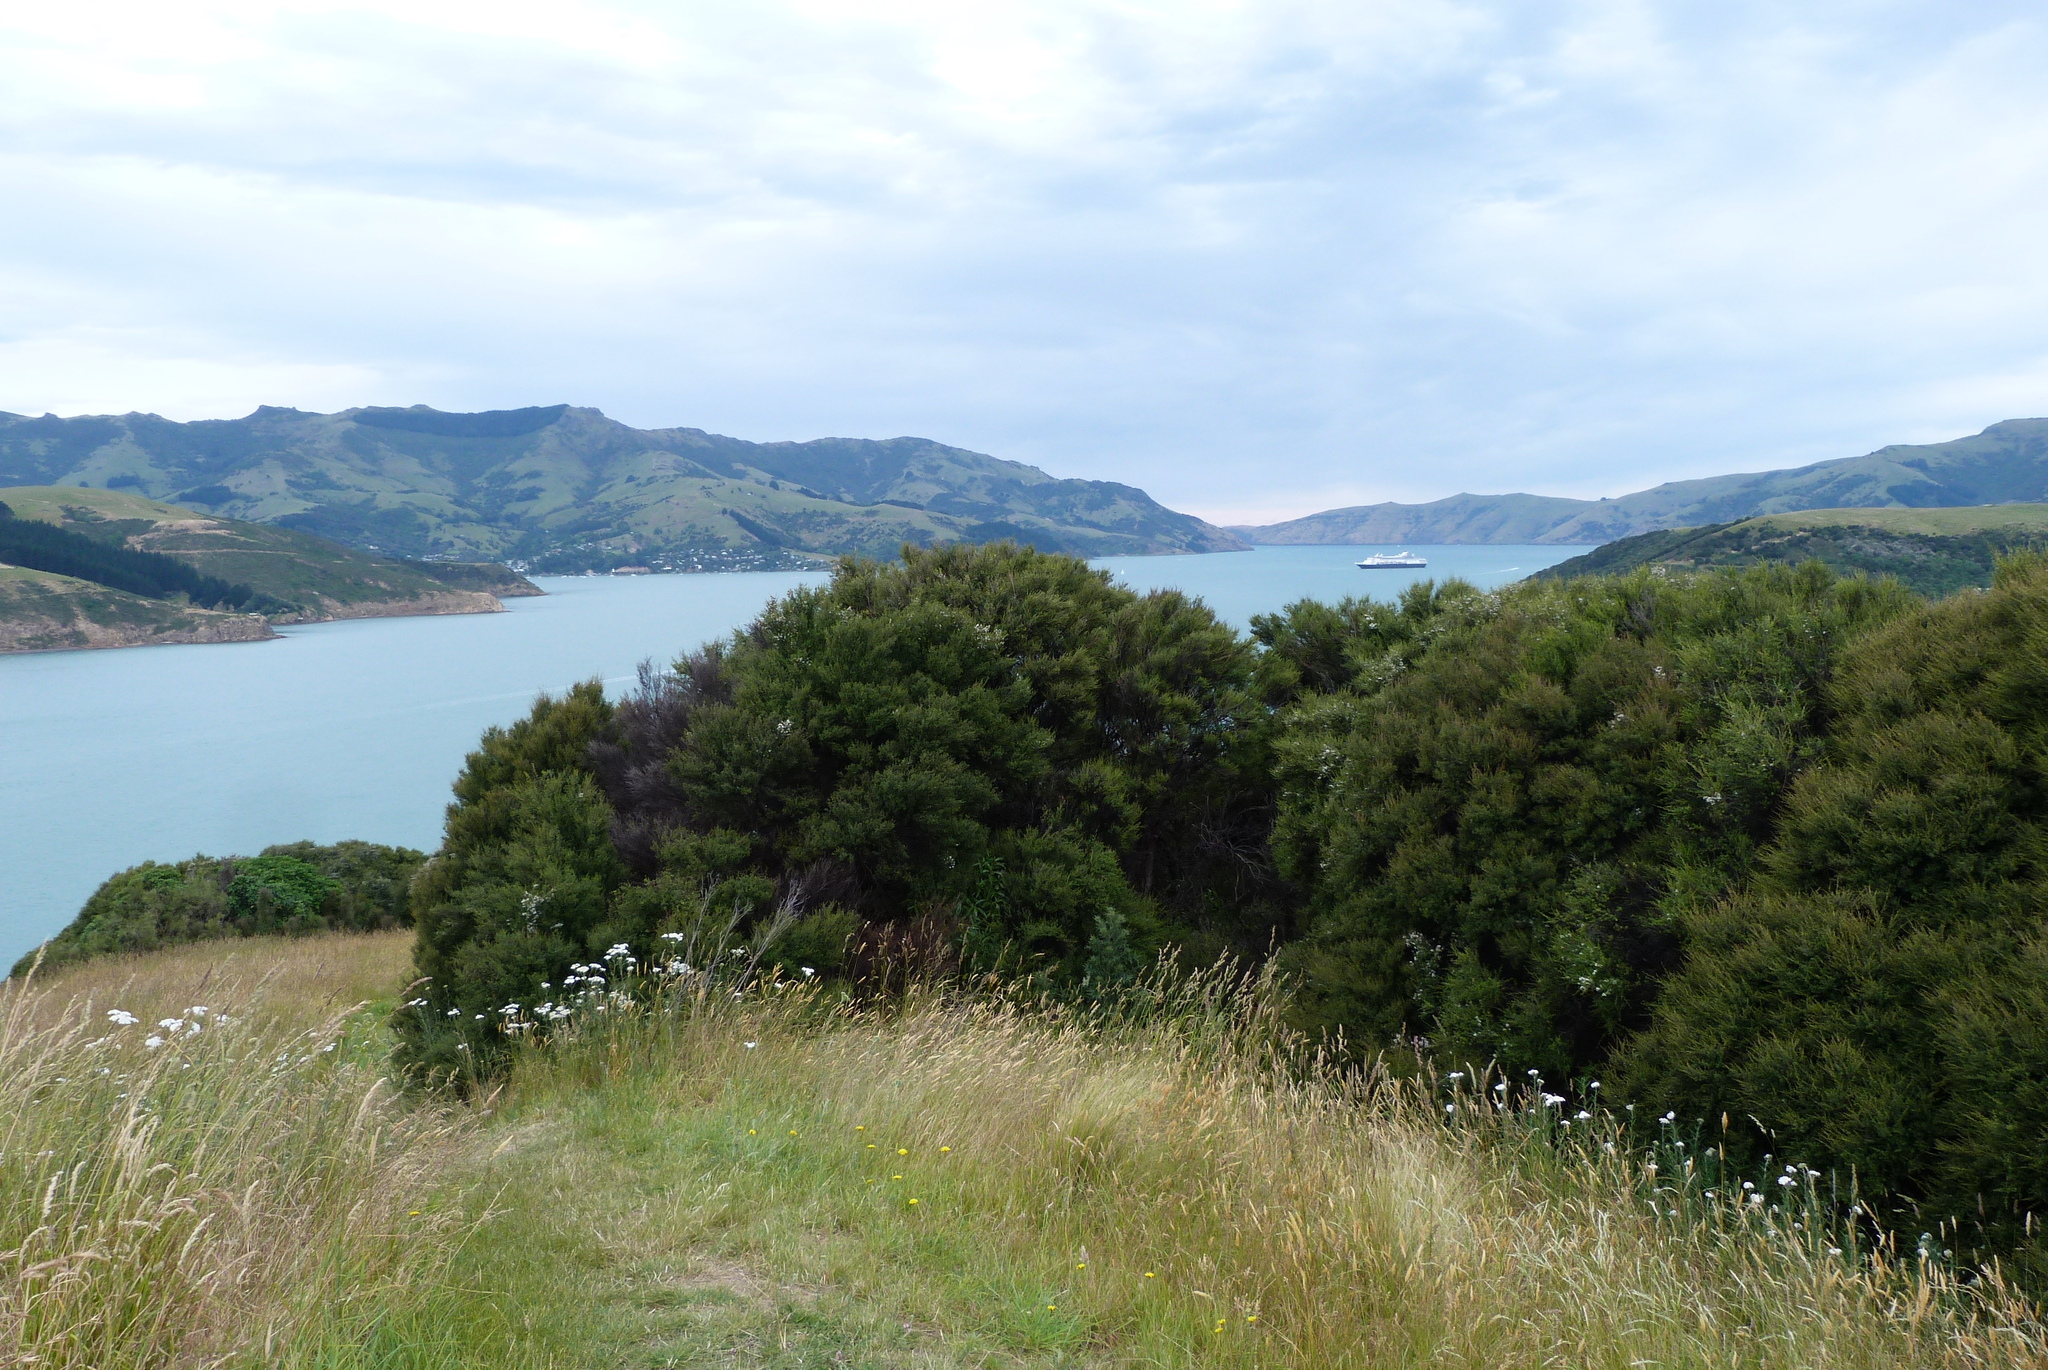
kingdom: Plantae
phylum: Tracheophyta
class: Magnoliopsida
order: Myrtales
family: Myrtaceae
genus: Kunzea
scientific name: Kunzea robusta
